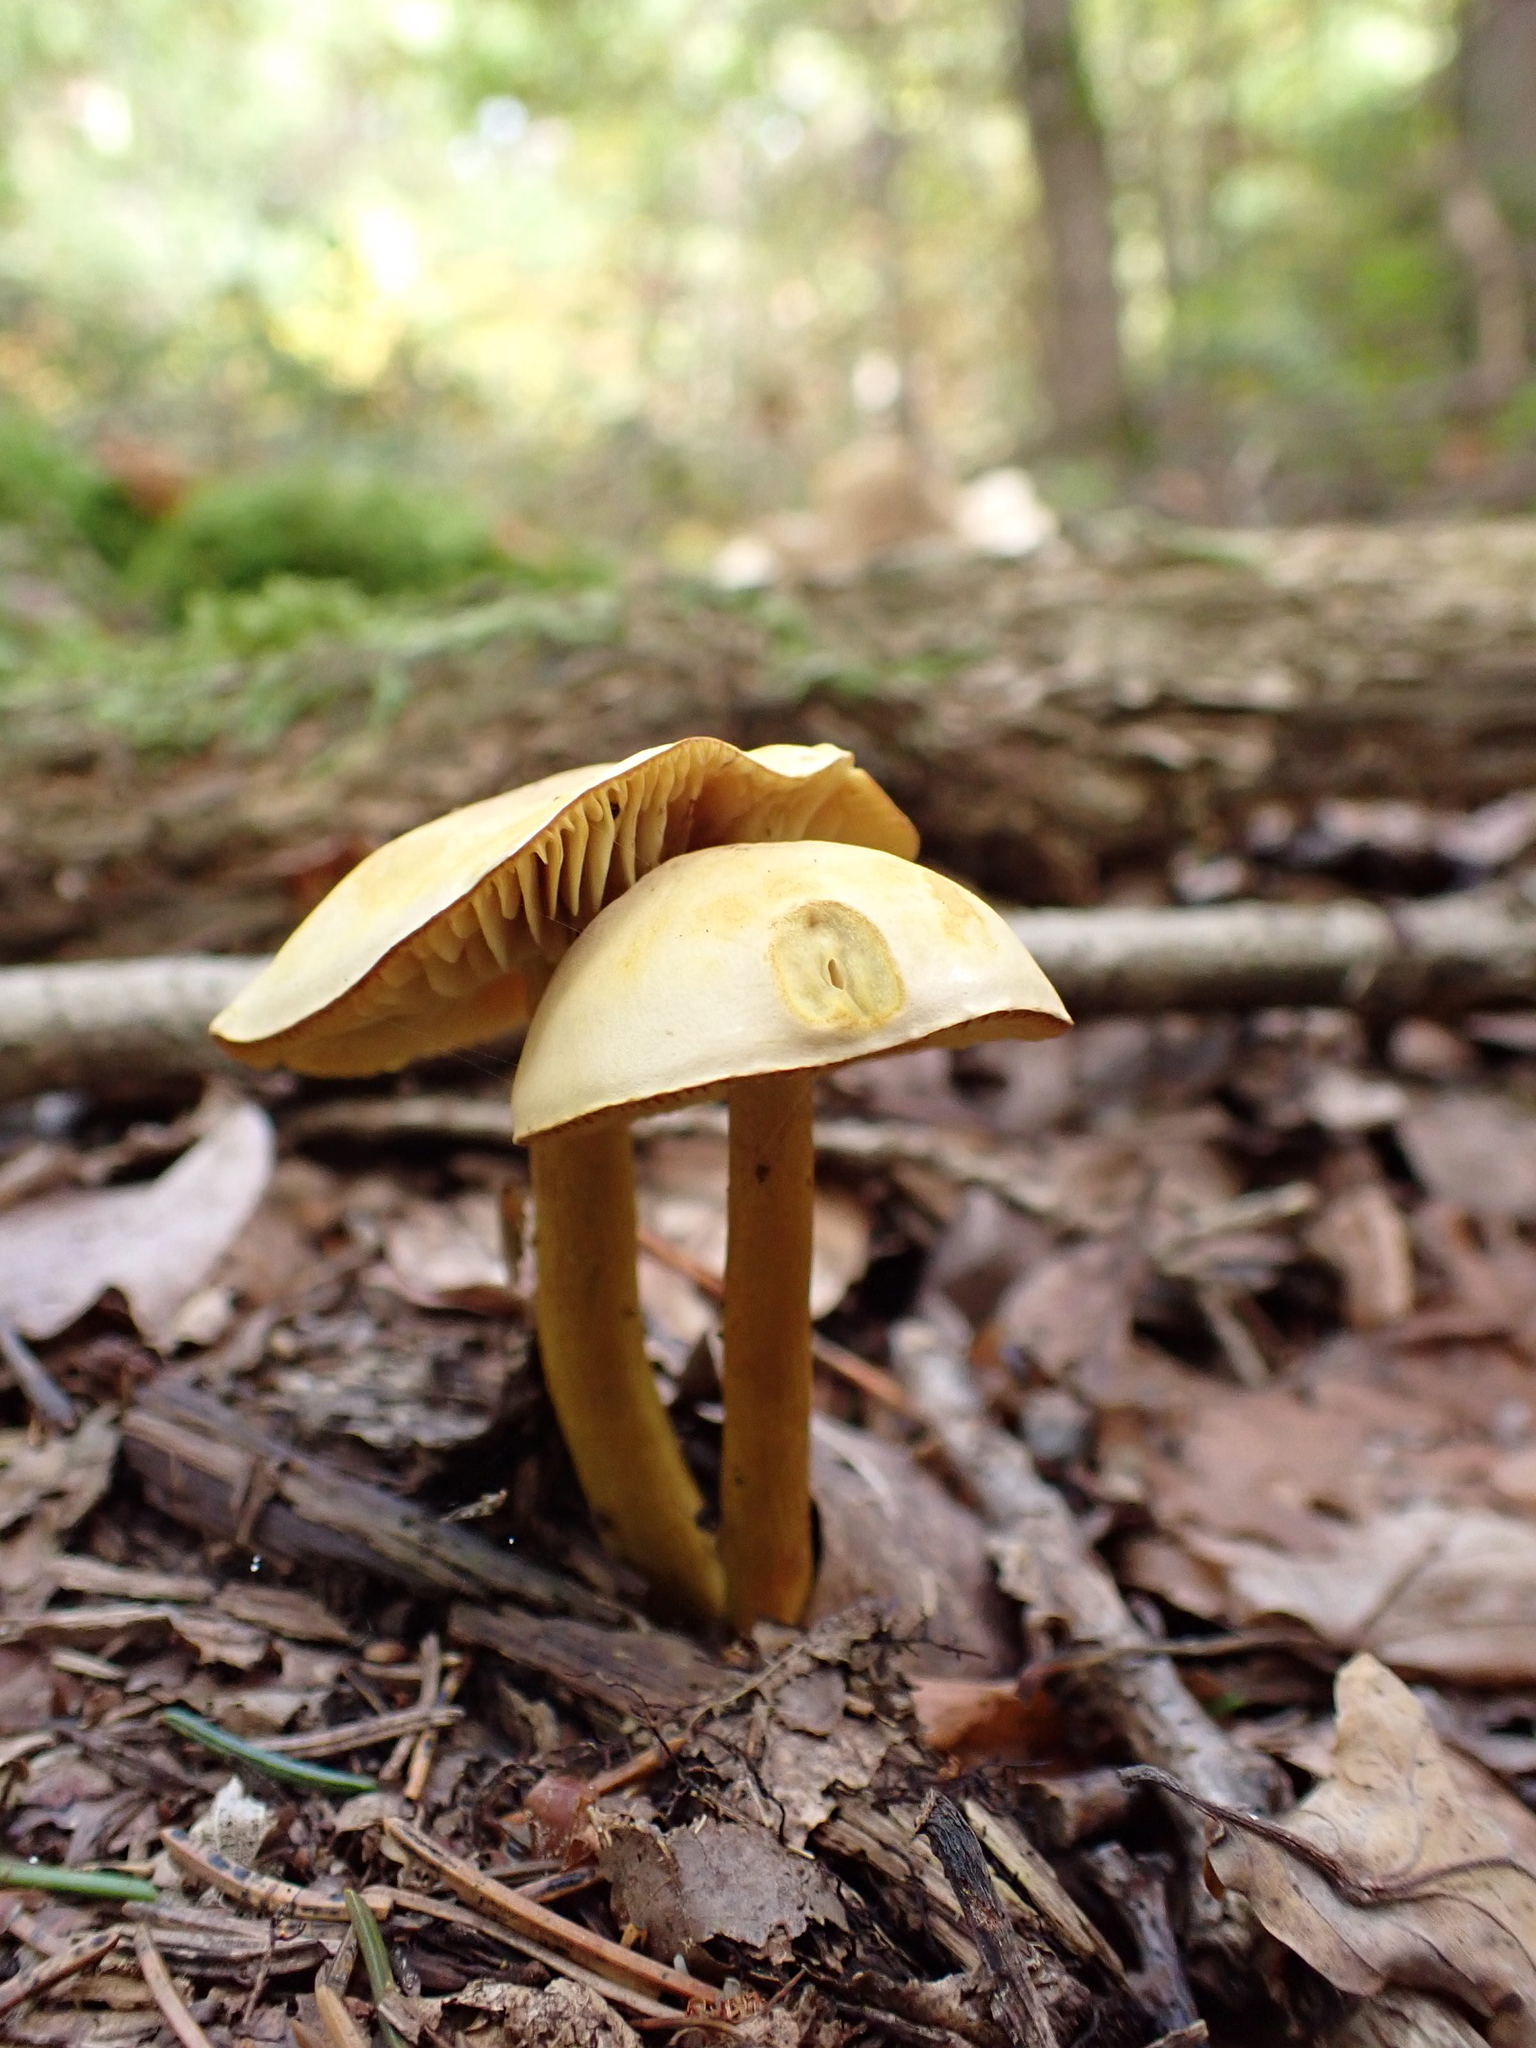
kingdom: Fungi
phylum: Basidiomycota
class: Agaricomycetes
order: Agaricales
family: Tricholomataceae
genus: Tricholoma
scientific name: Tricholoma sulphureum
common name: Stinky knight
